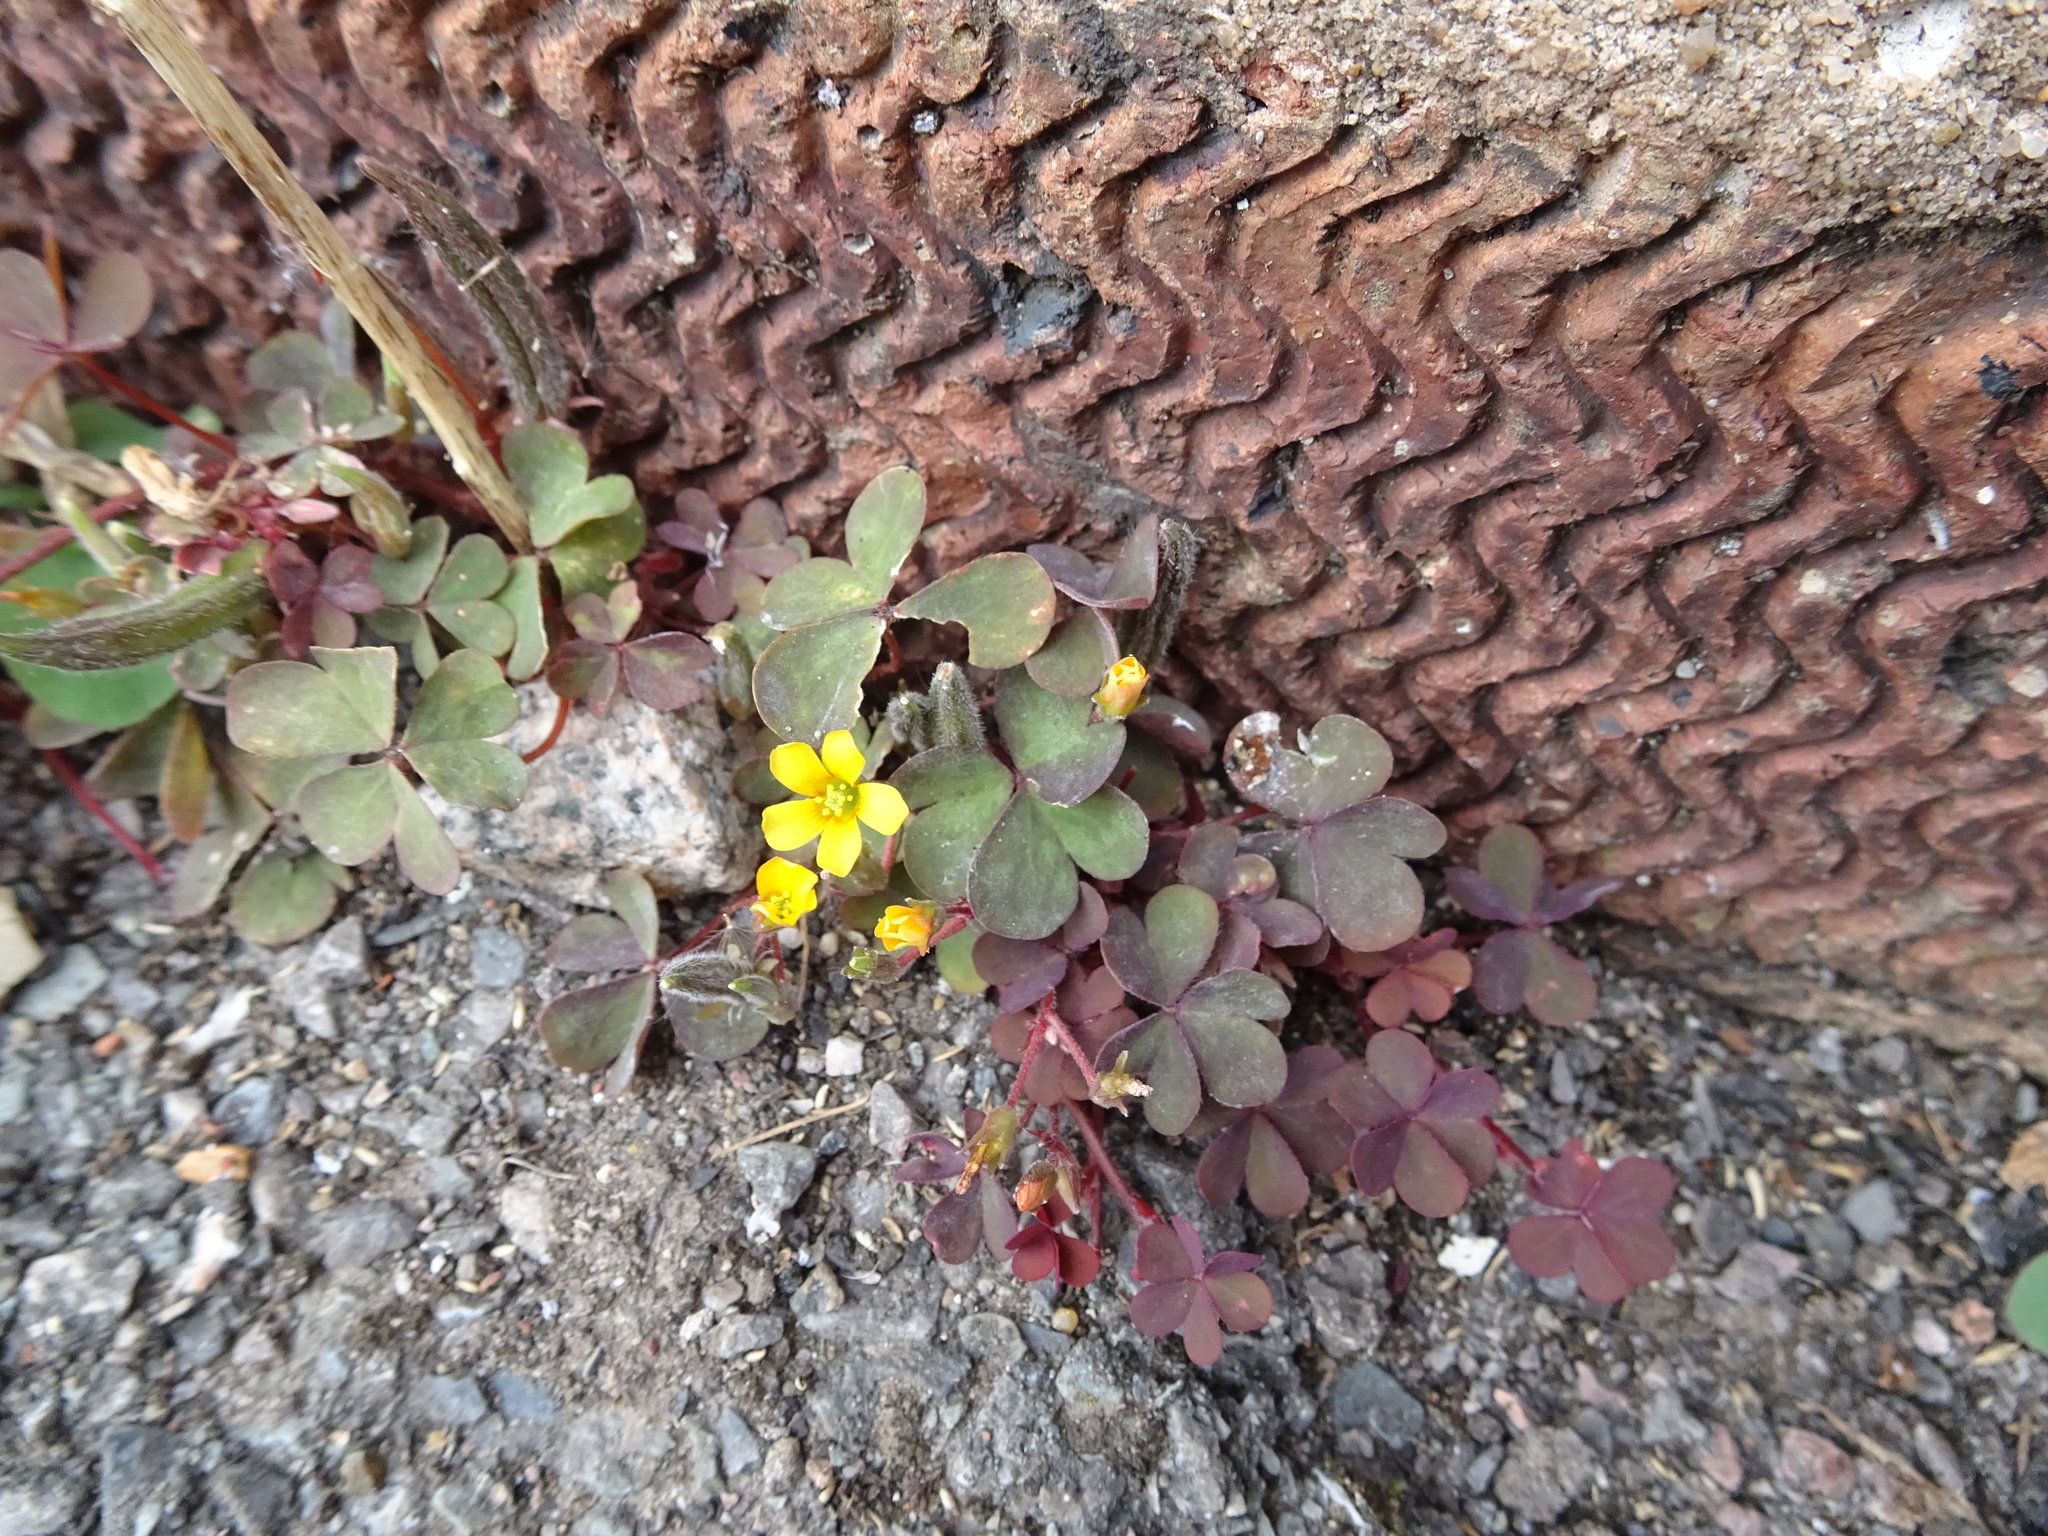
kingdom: Plantae
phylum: Tracheophyta
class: Magnoliopsida
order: Oxalidales
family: Oxalidaceae
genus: Oxalis
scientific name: Oxalis corniculata
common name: Procumbent yellow-sorrel
